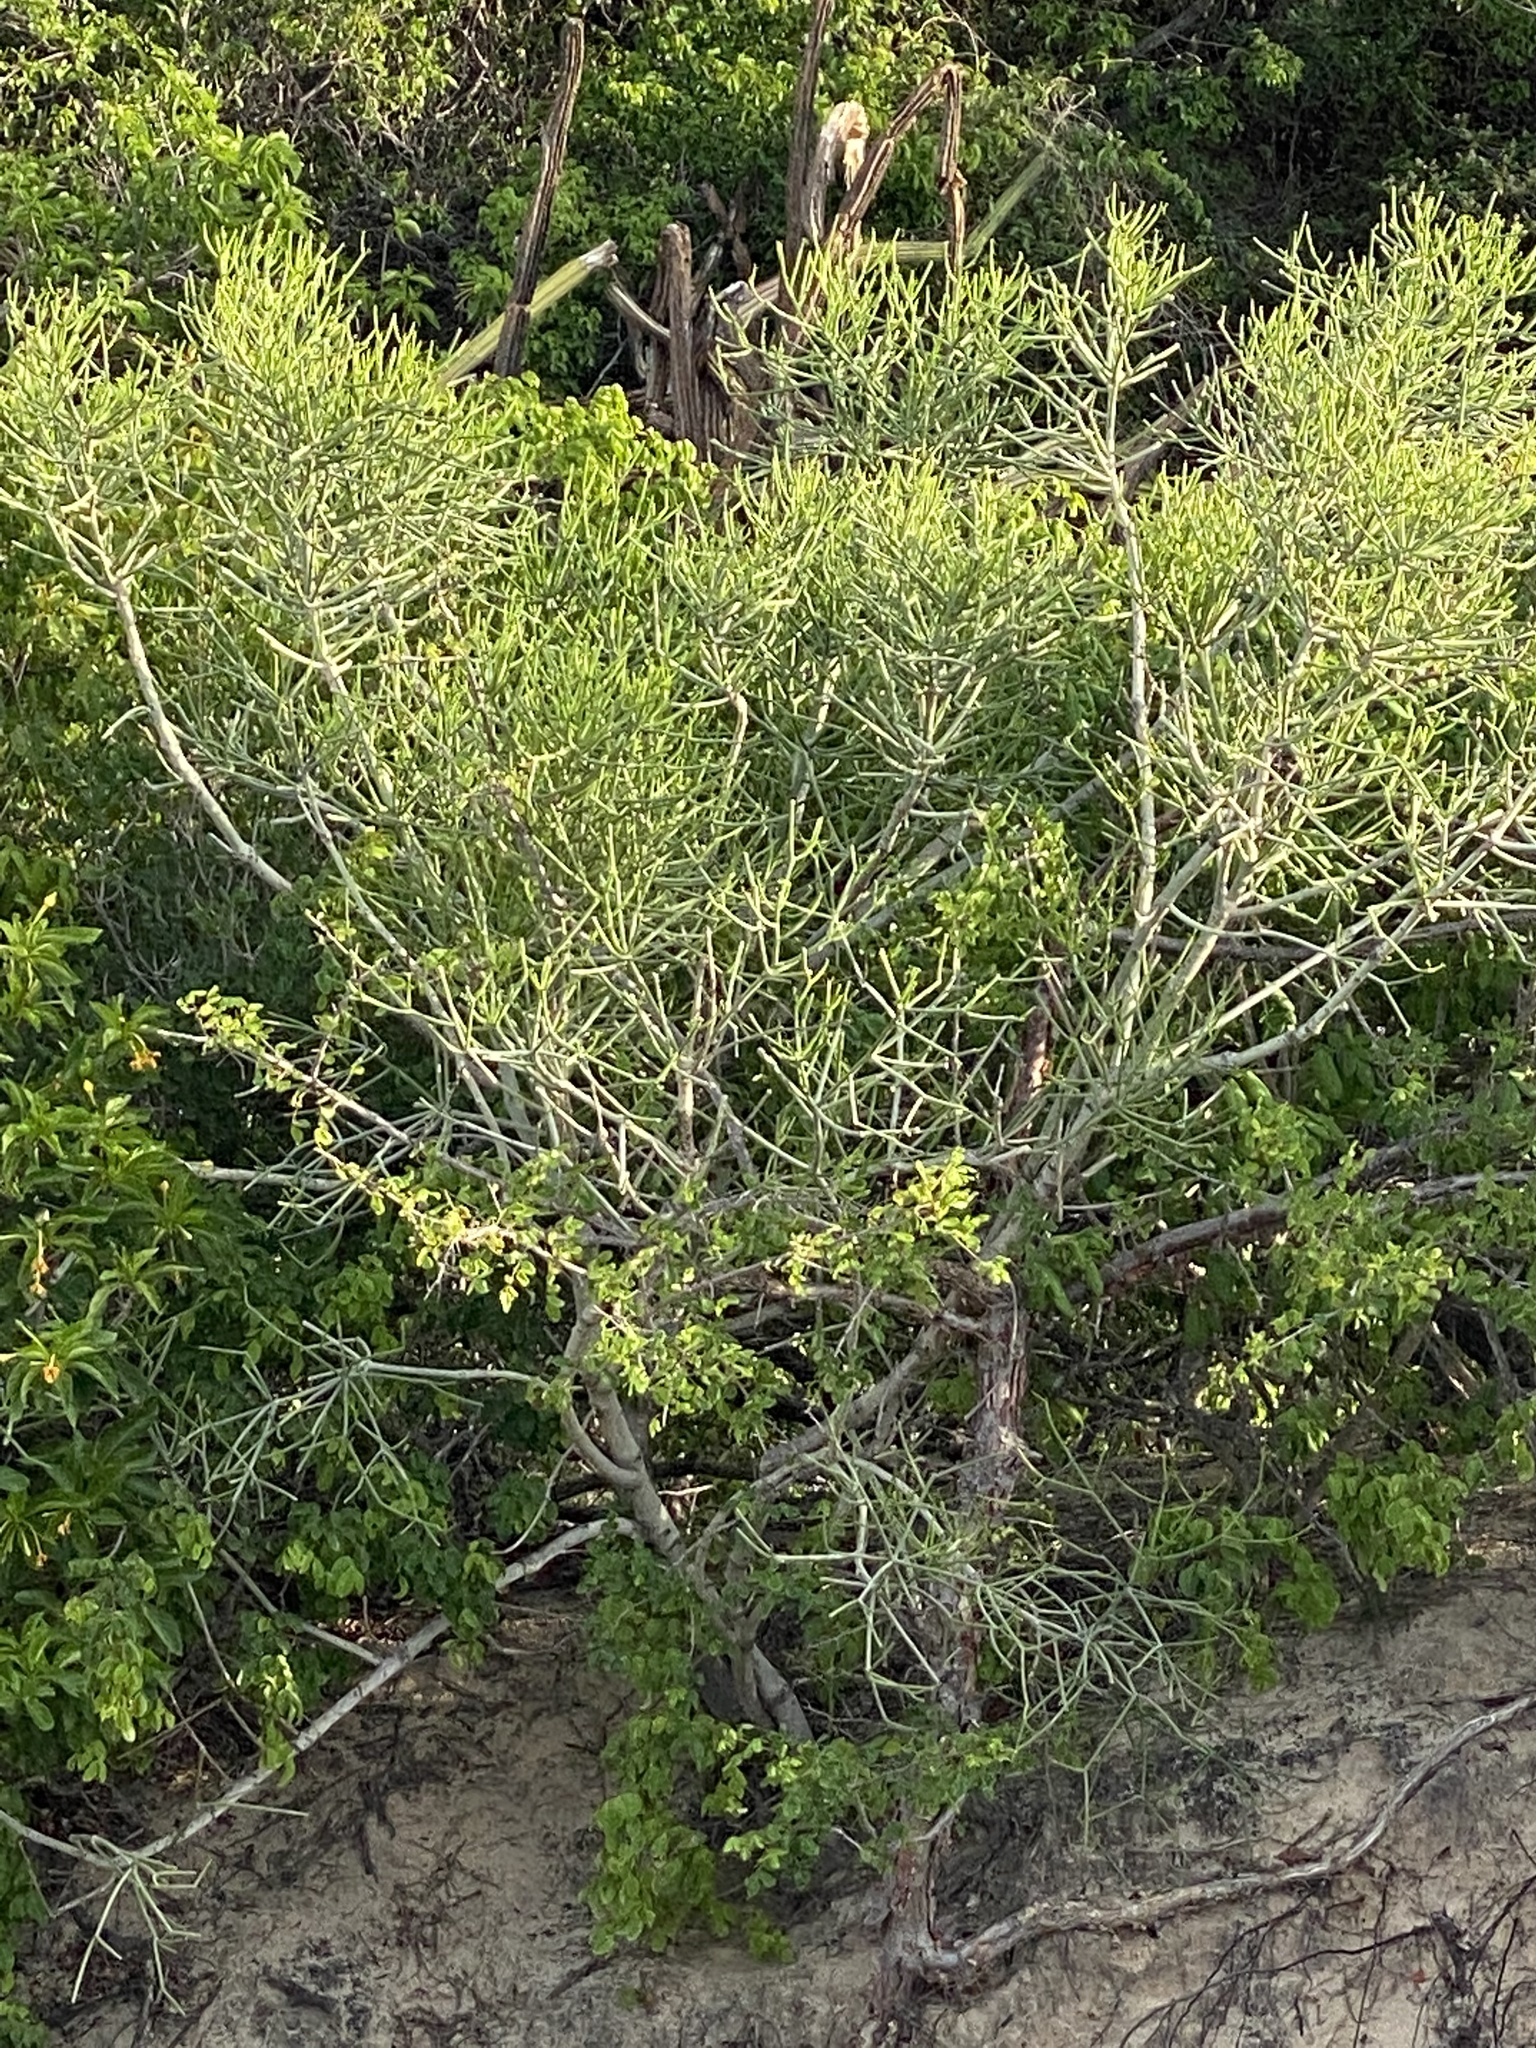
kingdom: Plantae
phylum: Tracheophyta
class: Magnoliopsida
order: Malpighiales
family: Euphorbiaceae
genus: Euphorbia
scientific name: Euphorbia tirucalli
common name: Indiantree spurge
